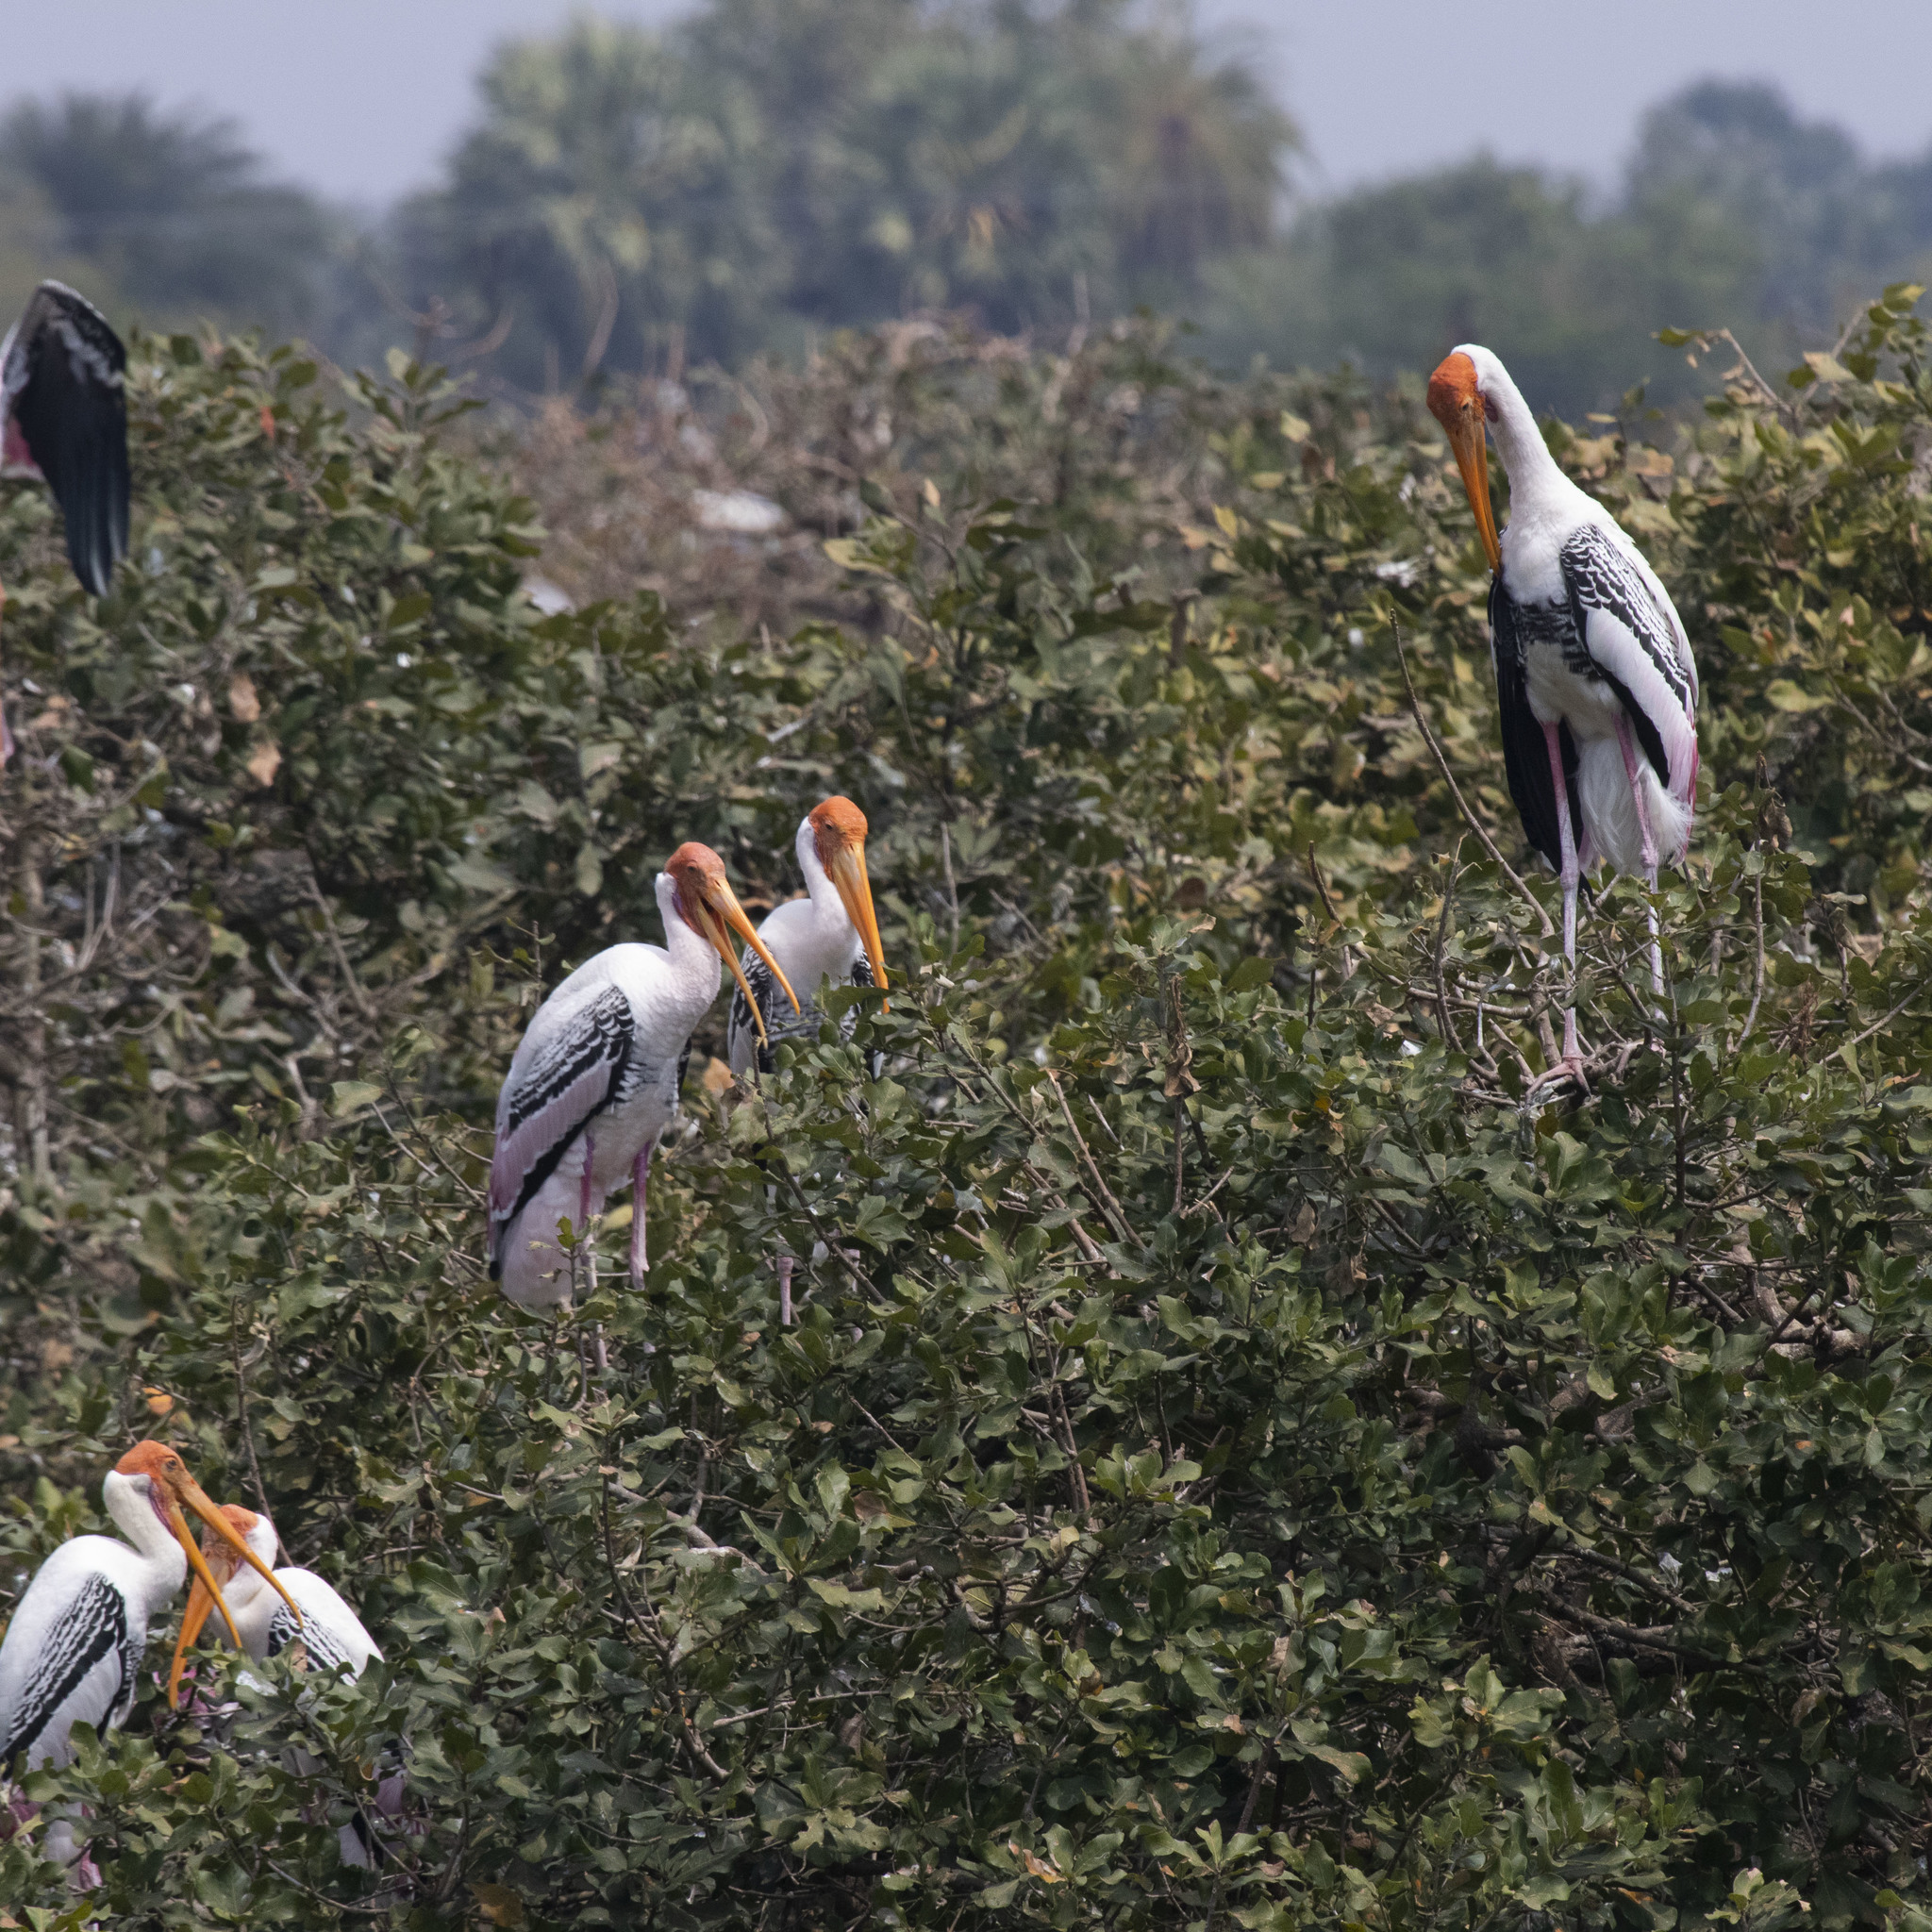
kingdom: Animalia
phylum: Chordata
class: Aves
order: Ciconiiformes
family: Ciconiidae
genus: Mycteria
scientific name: Mycteria leucocephala
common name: Painted stork
